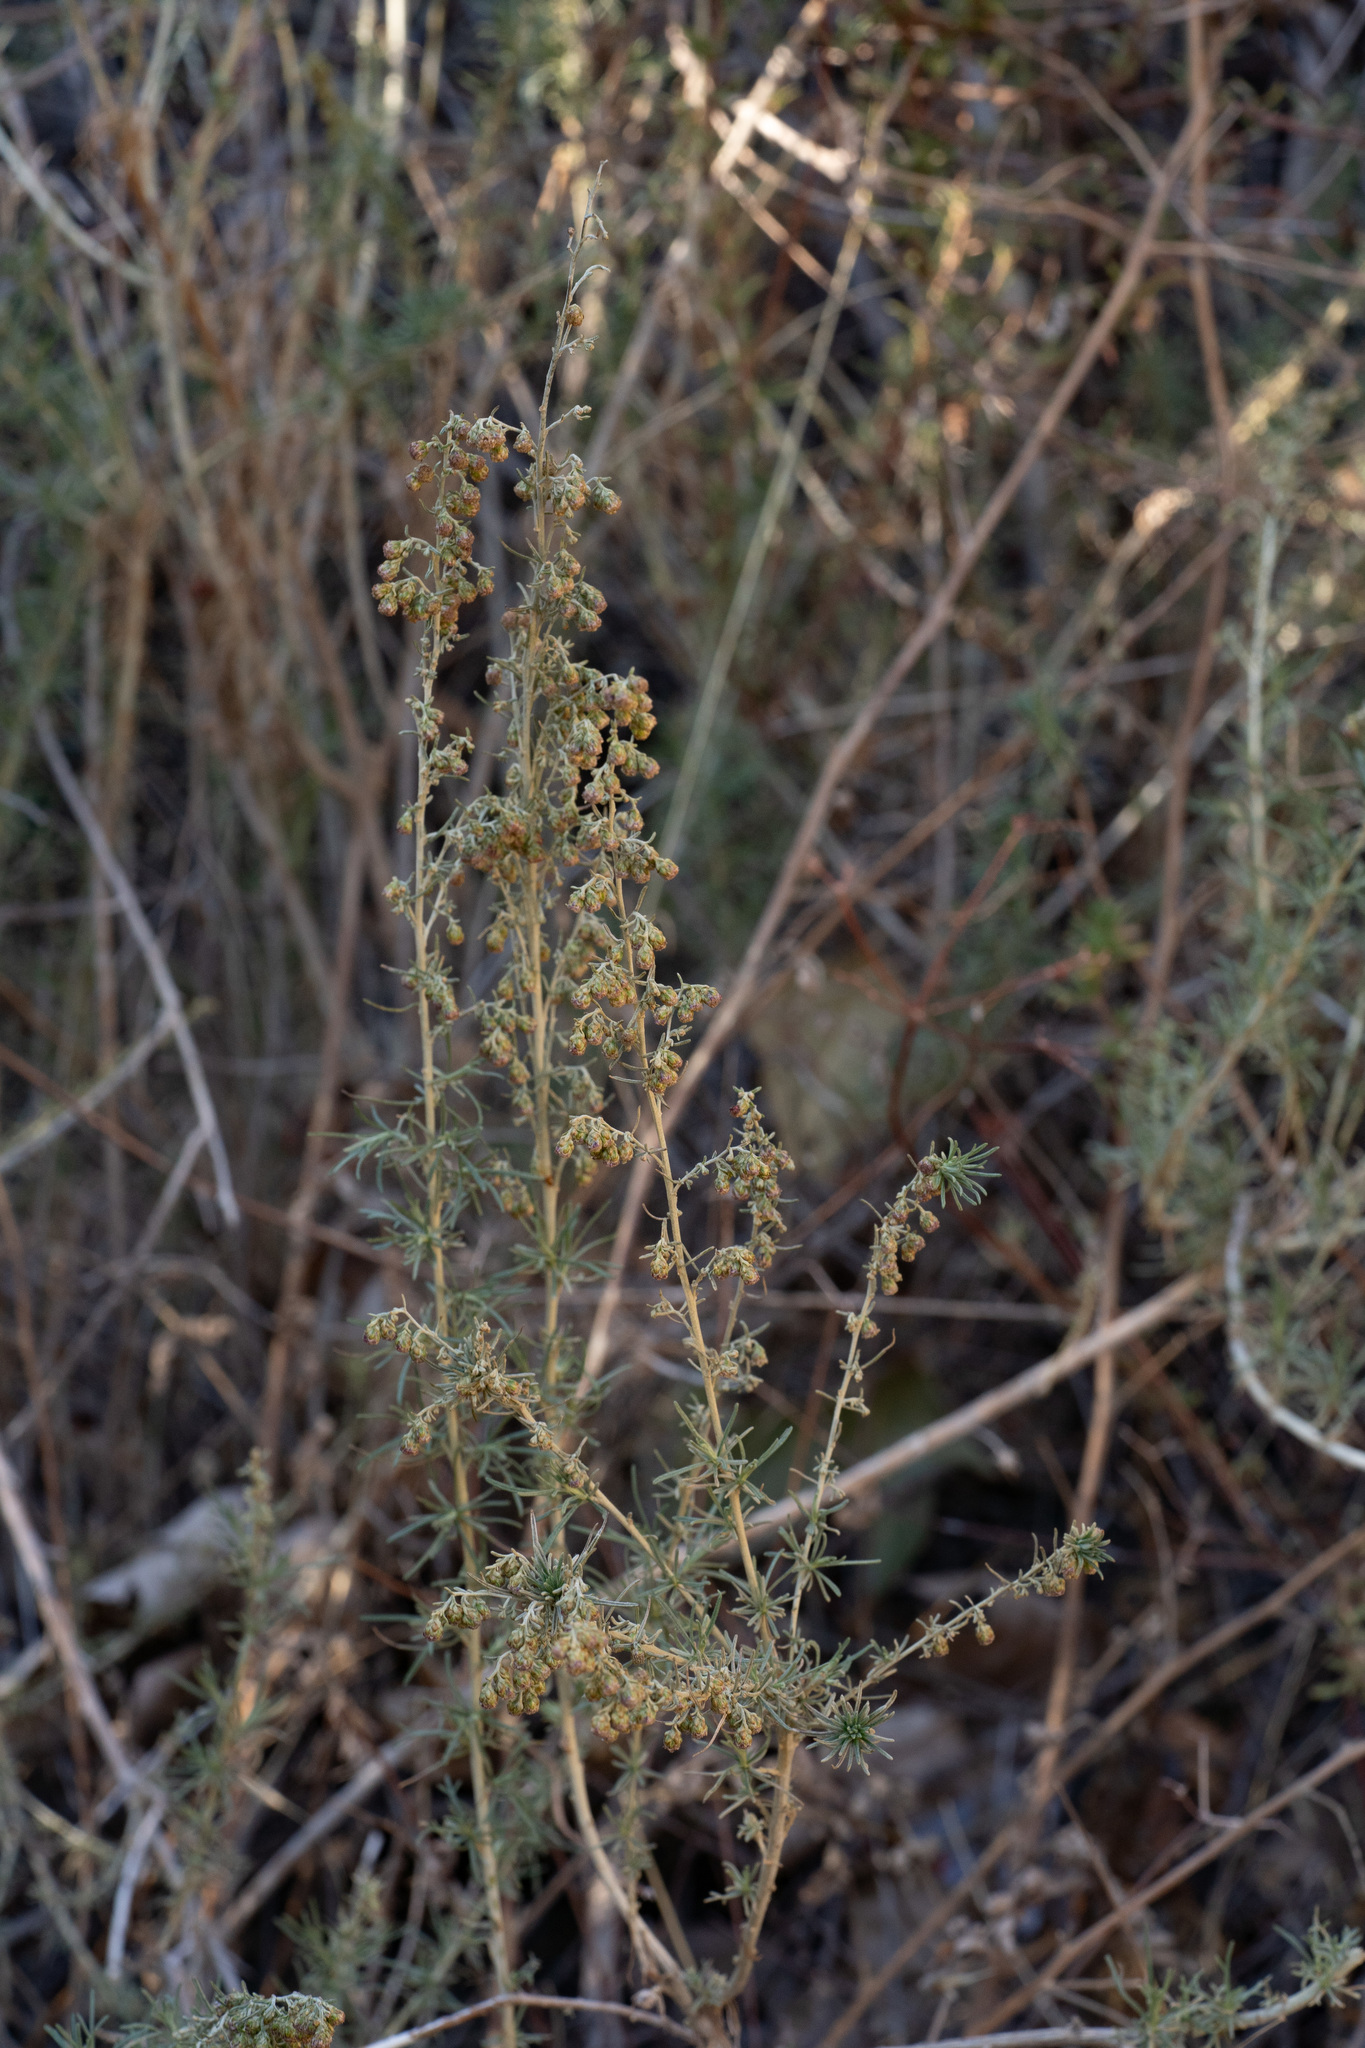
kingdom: Plantae
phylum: Tracheophyta
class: Magnoliopsida
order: Asterales
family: Asteraceae
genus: Artemisia
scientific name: Artemisia californica
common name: California sagebrush
